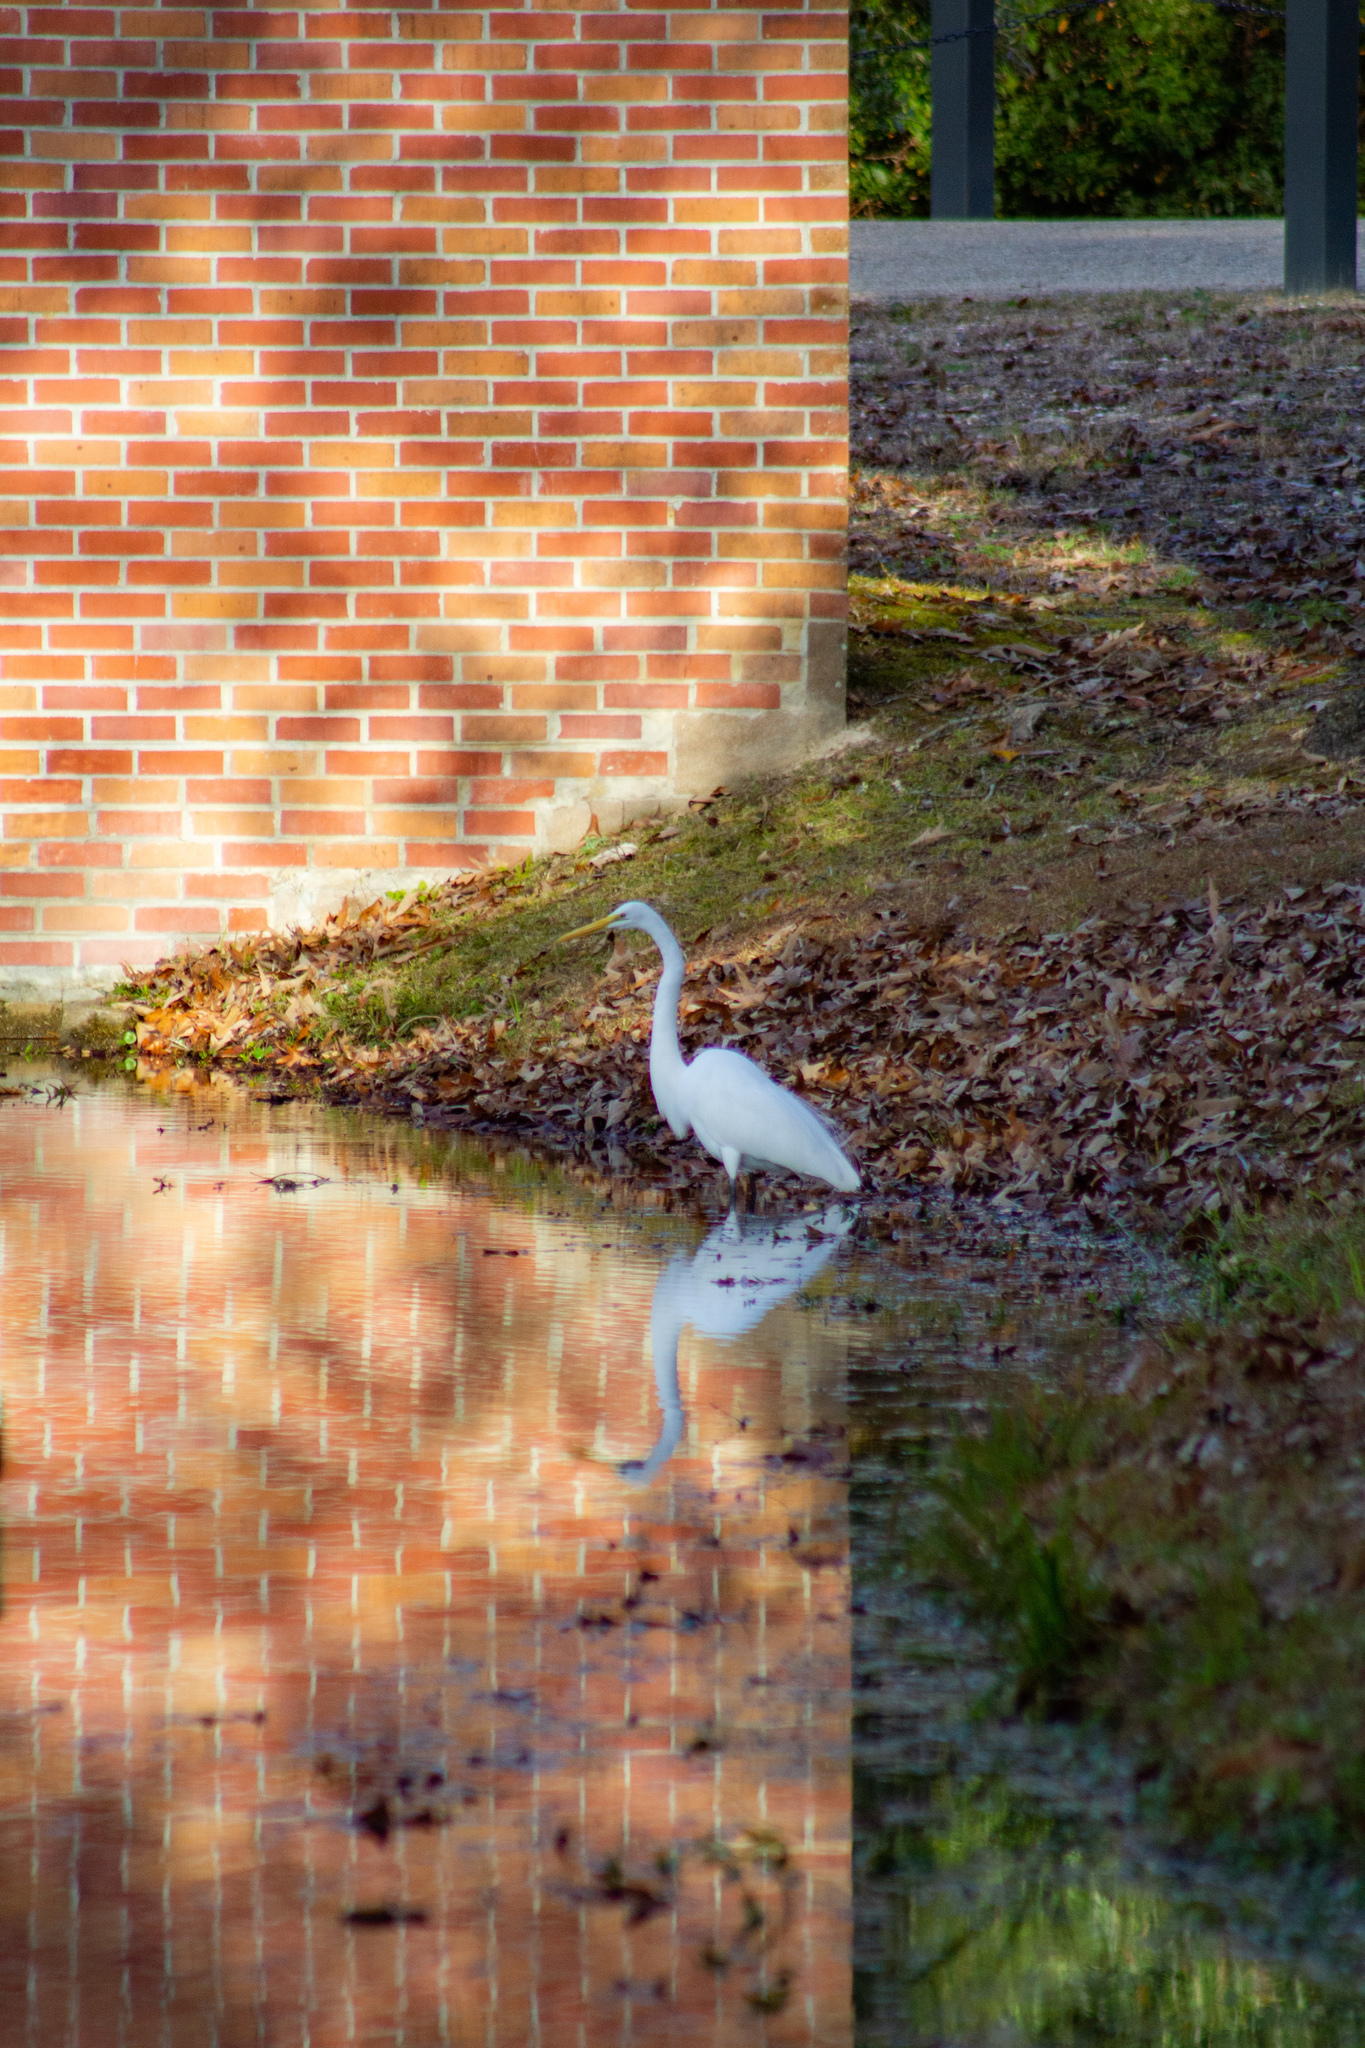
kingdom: Animalia
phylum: Chordata
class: Aves
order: Pelecaniformes
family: Ardeidae
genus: Ardea
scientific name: Ardea alba
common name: Great egret
